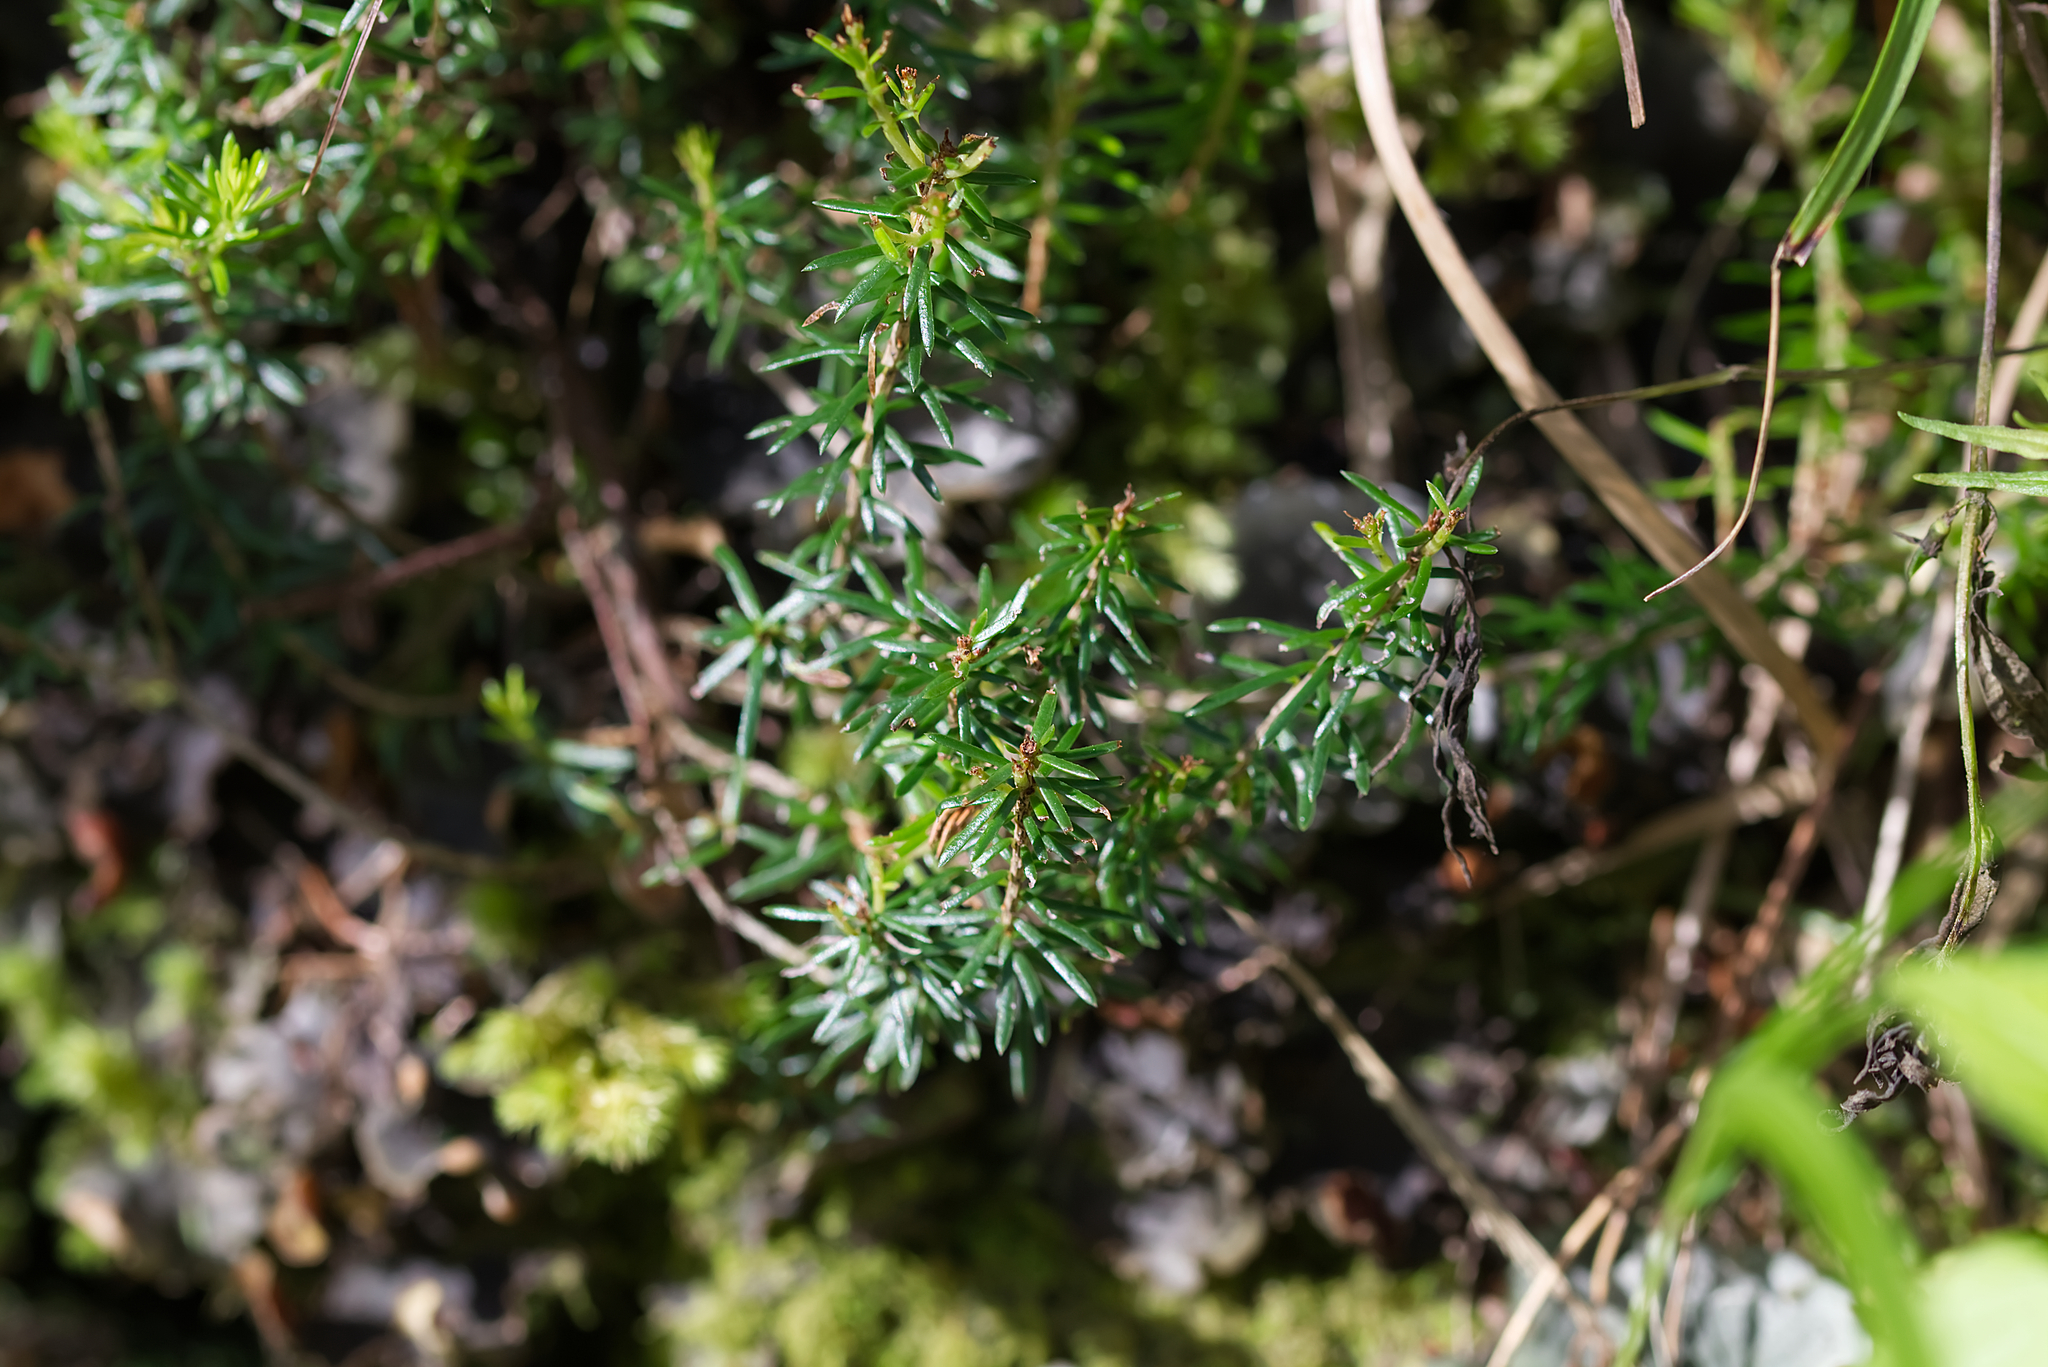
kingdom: Plantae
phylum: Tracheophyta
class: Magnoliopsida
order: Ericales
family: Ericaceae
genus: Erica
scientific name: Erica carnea
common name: Winter heath
